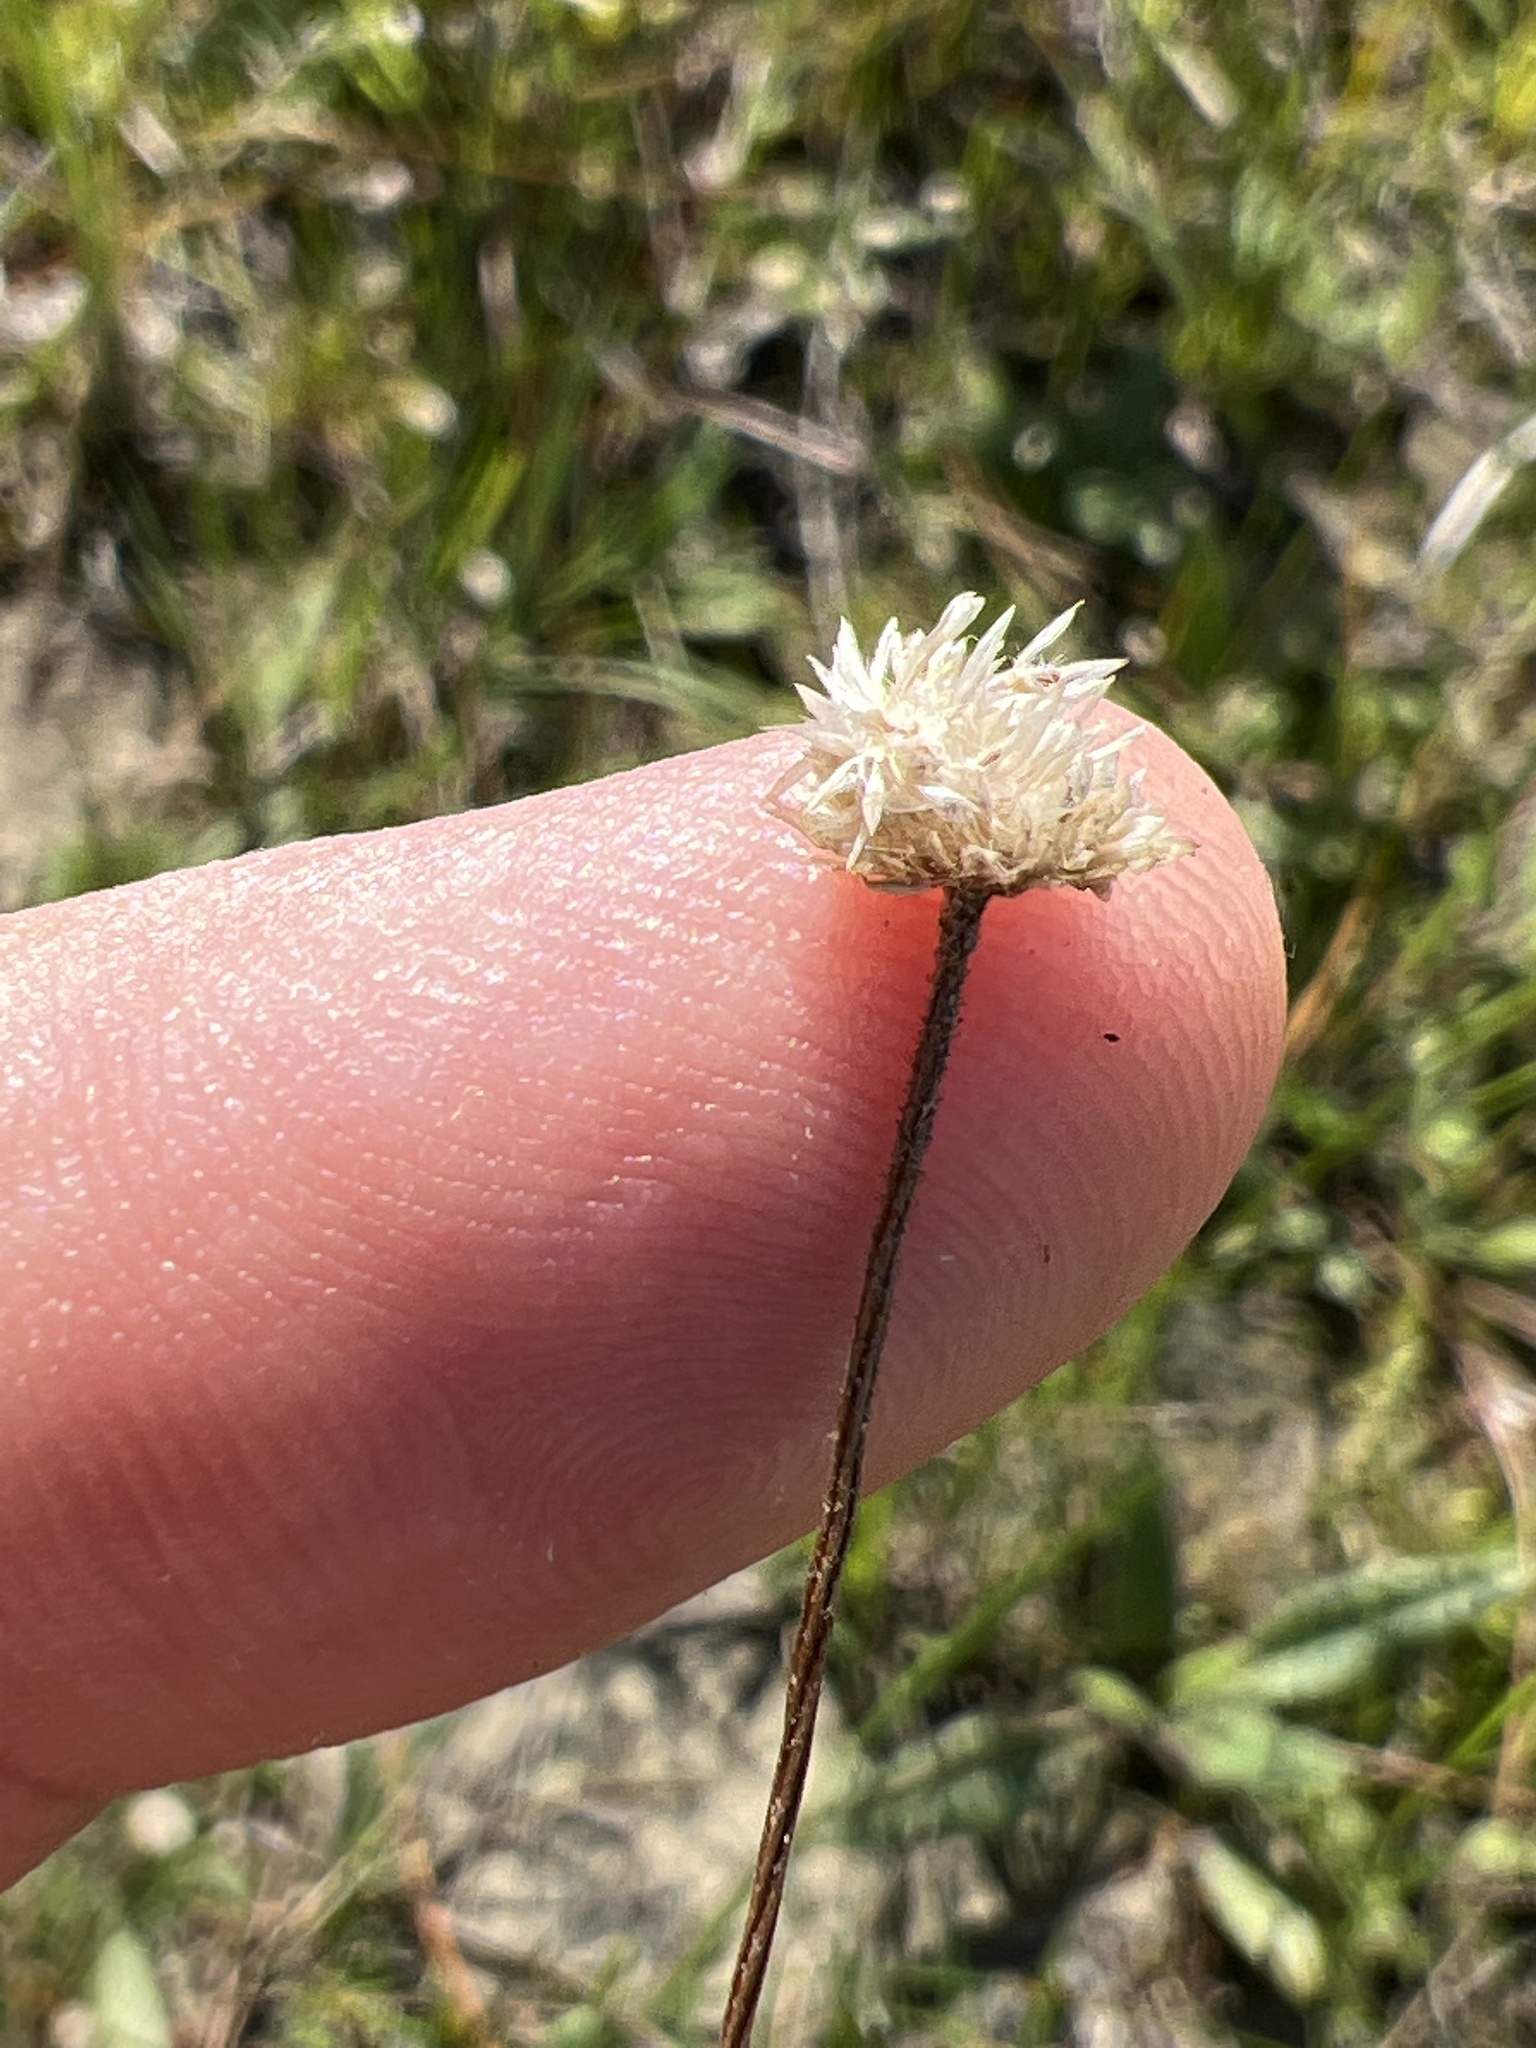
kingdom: Plantae
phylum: Tracheophyta
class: Liliopsida
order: Poales
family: Eriocaulaceae
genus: Syngonanthus
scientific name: Syngonanthus flavidulus
